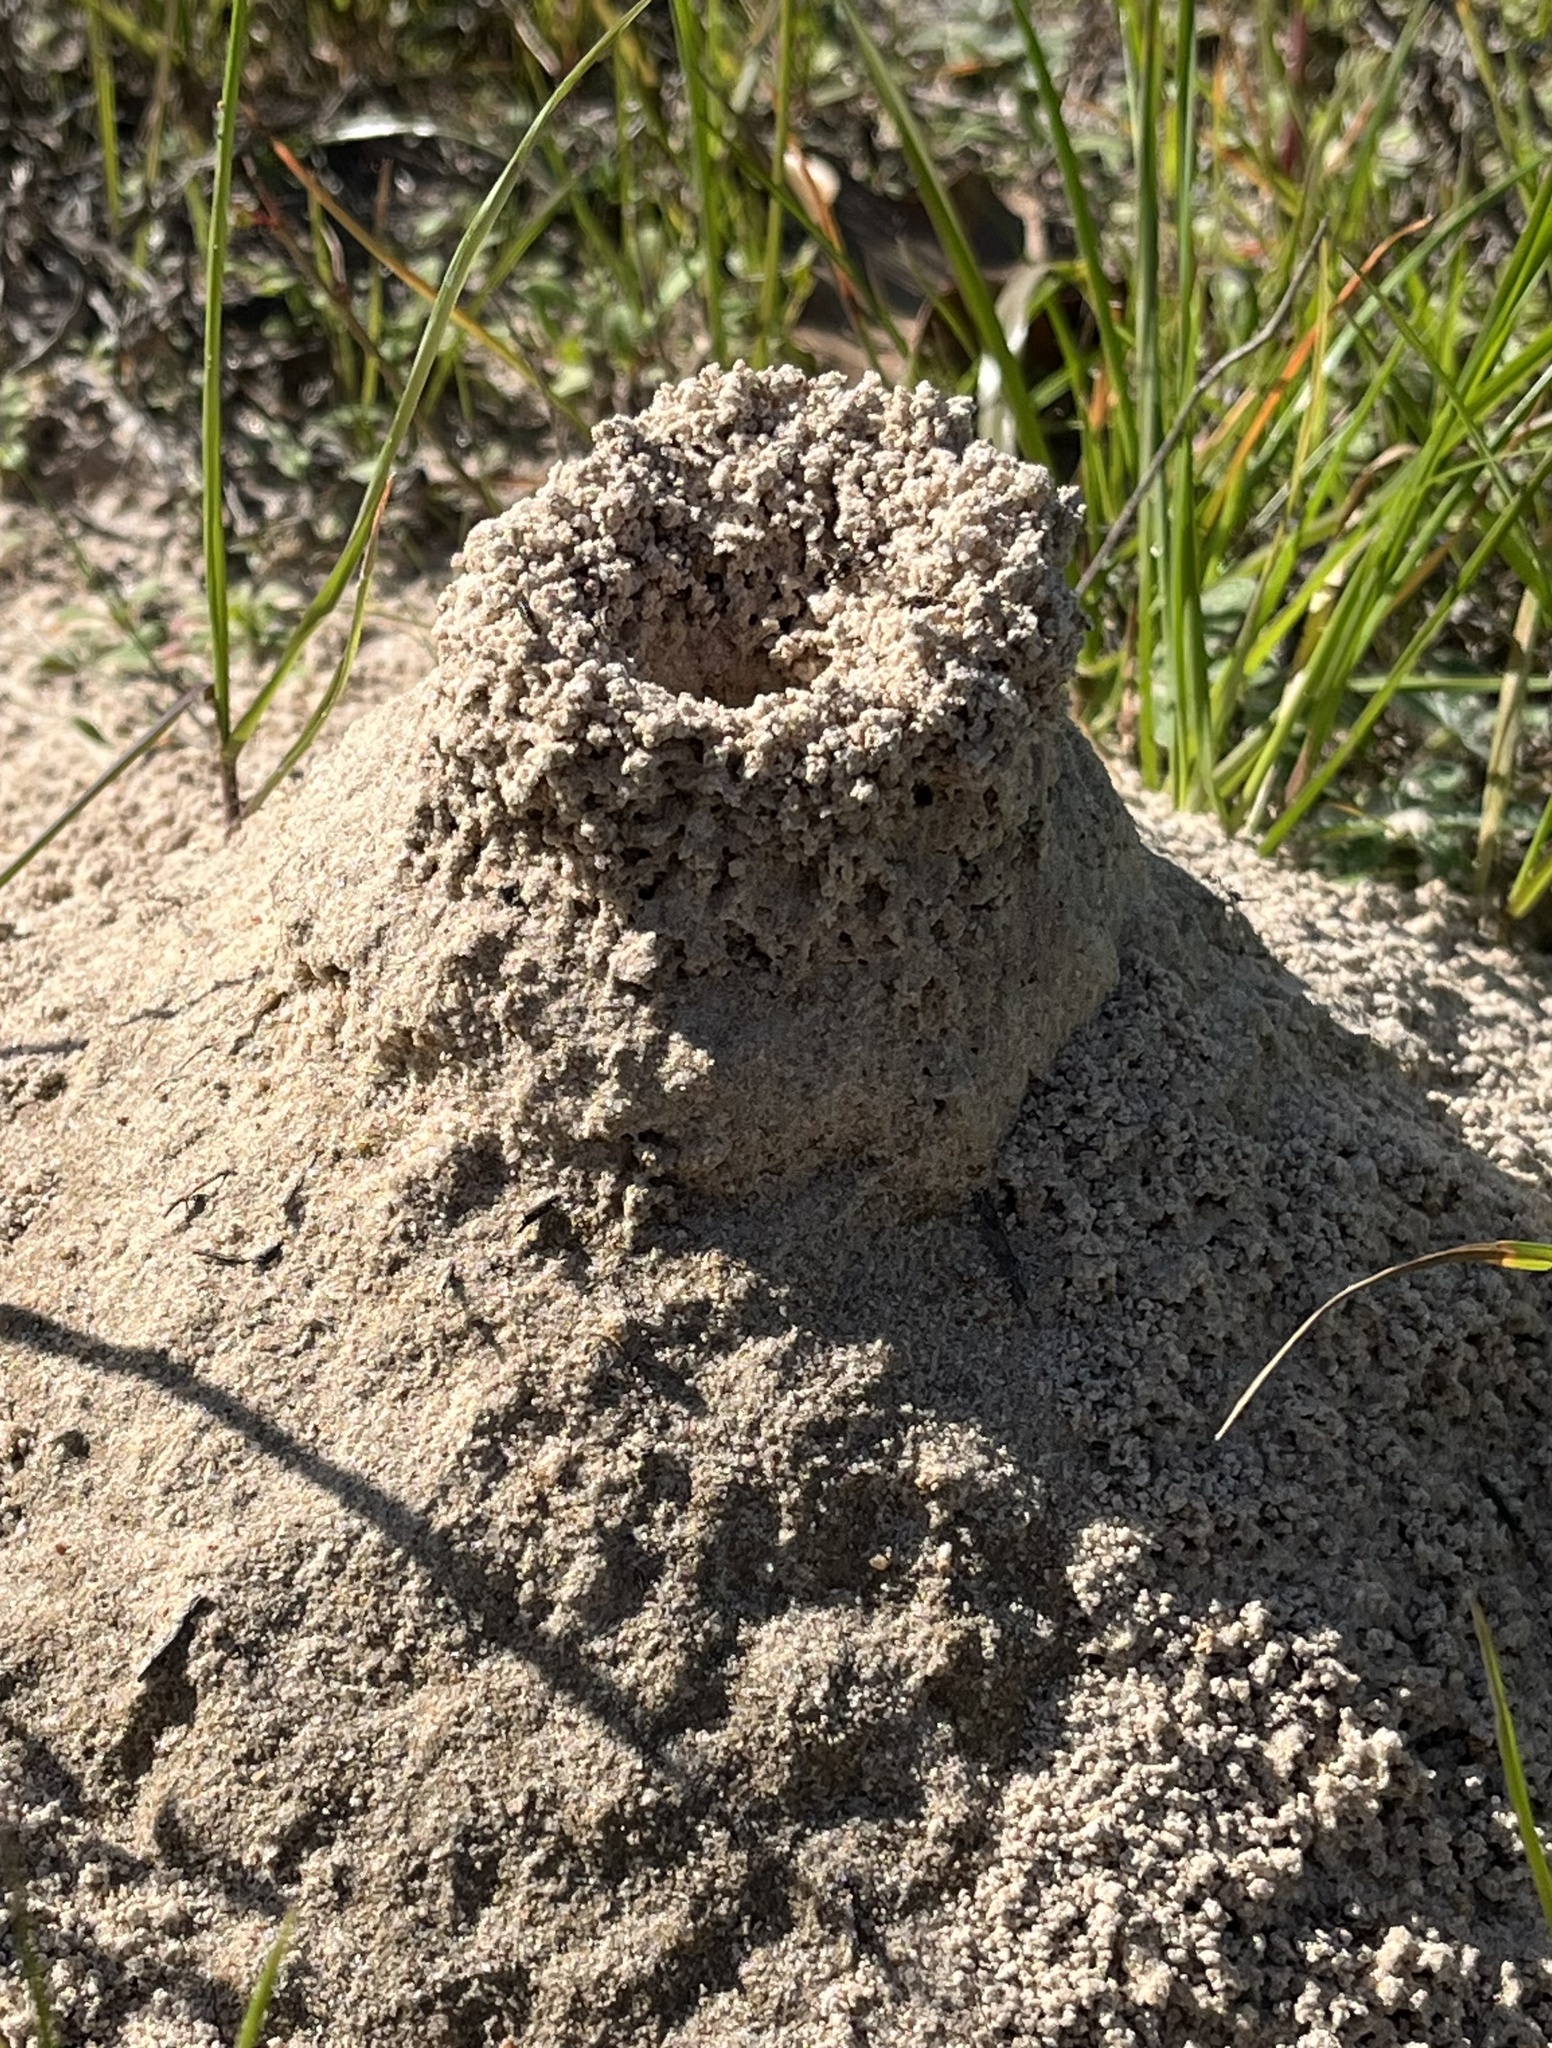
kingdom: Animalia
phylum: Arthropoda
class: Insecta
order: Hymenoptera
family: Formicidae
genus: Atta
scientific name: Atta texana
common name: Texas leafcutting ant
